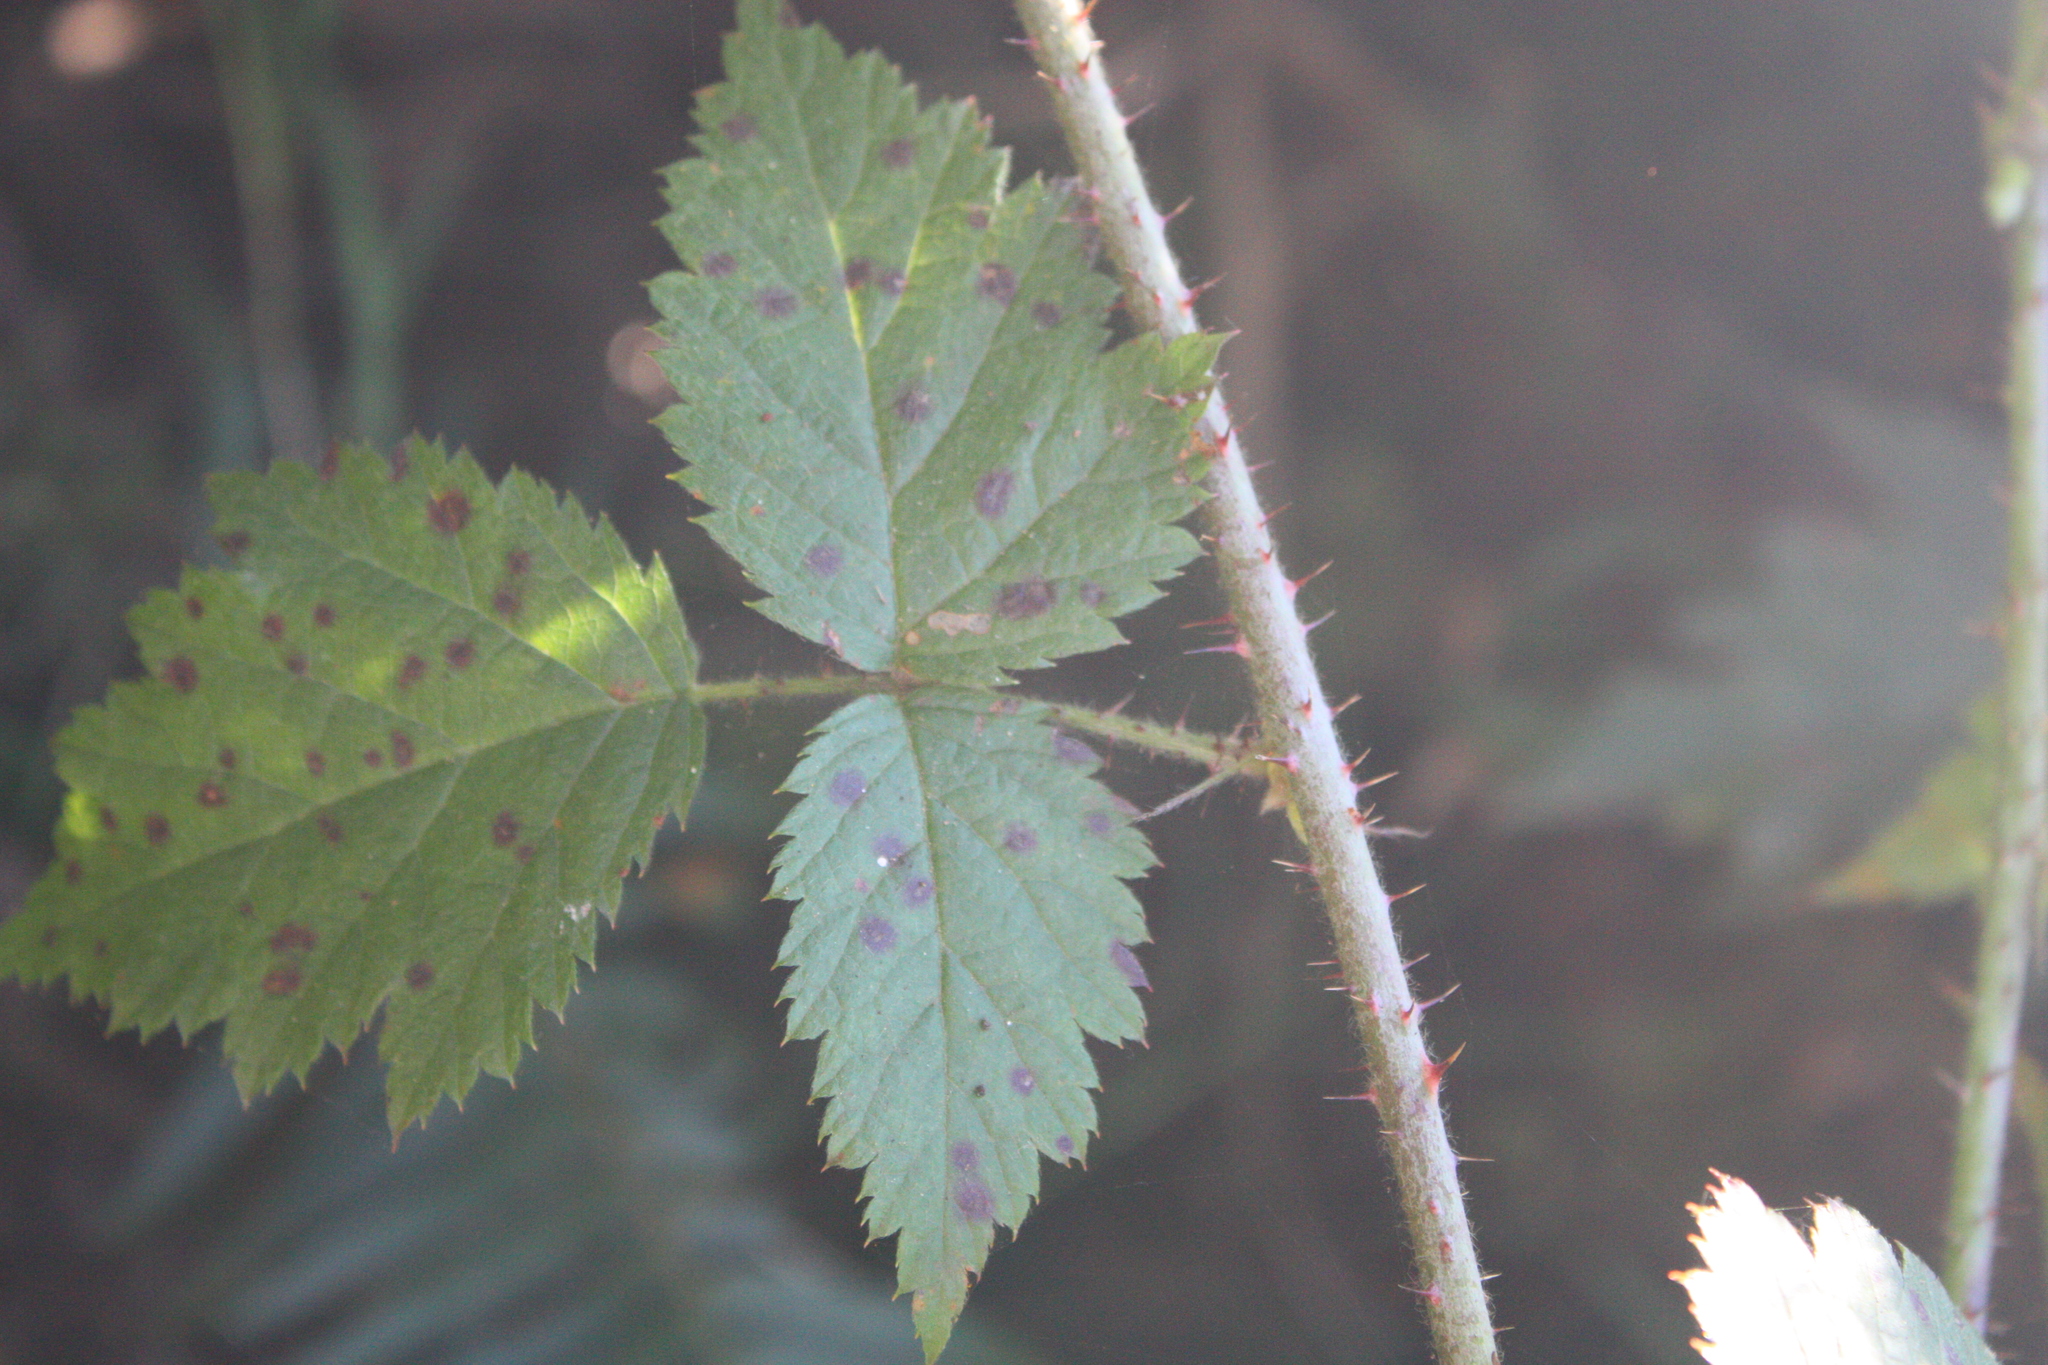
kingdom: Plantae
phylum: Tracheophyta
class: Magnoliopsida
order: Rosales
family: Rosaceae
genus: Rubus
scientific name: Rubus ursinus
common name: Pacific blackberry
